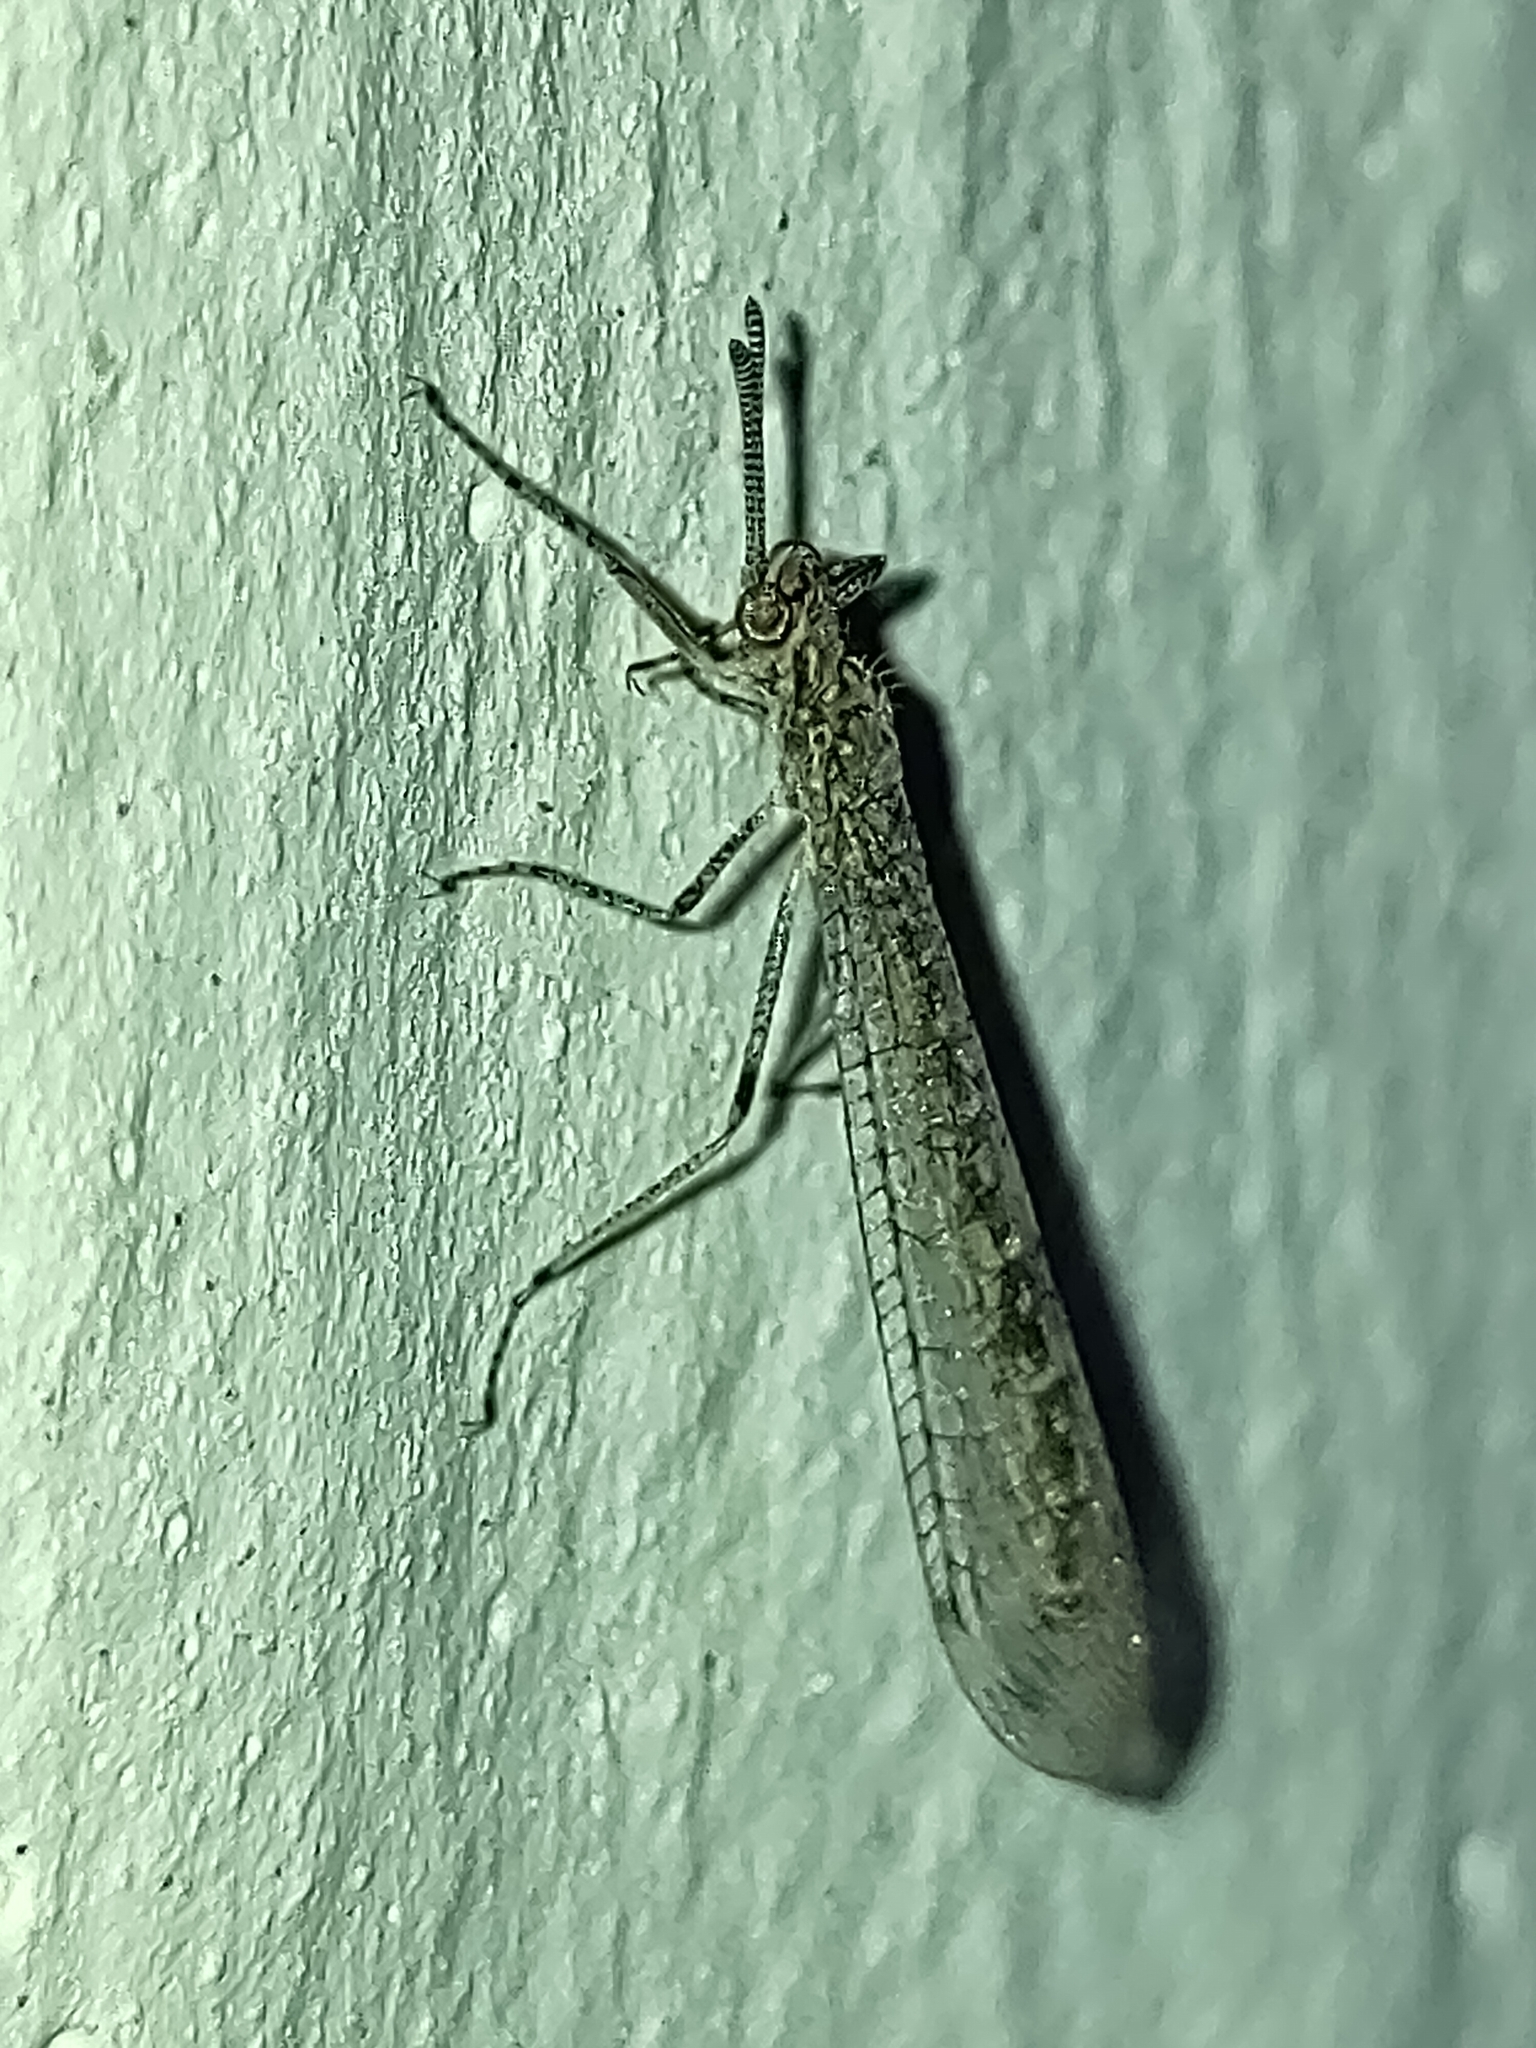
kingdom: Animalia
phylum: Arthropoda
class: Insecta
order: Neuroptera
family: Myrmeleontidae
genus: Dimarella
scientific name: Dimarella angusta
